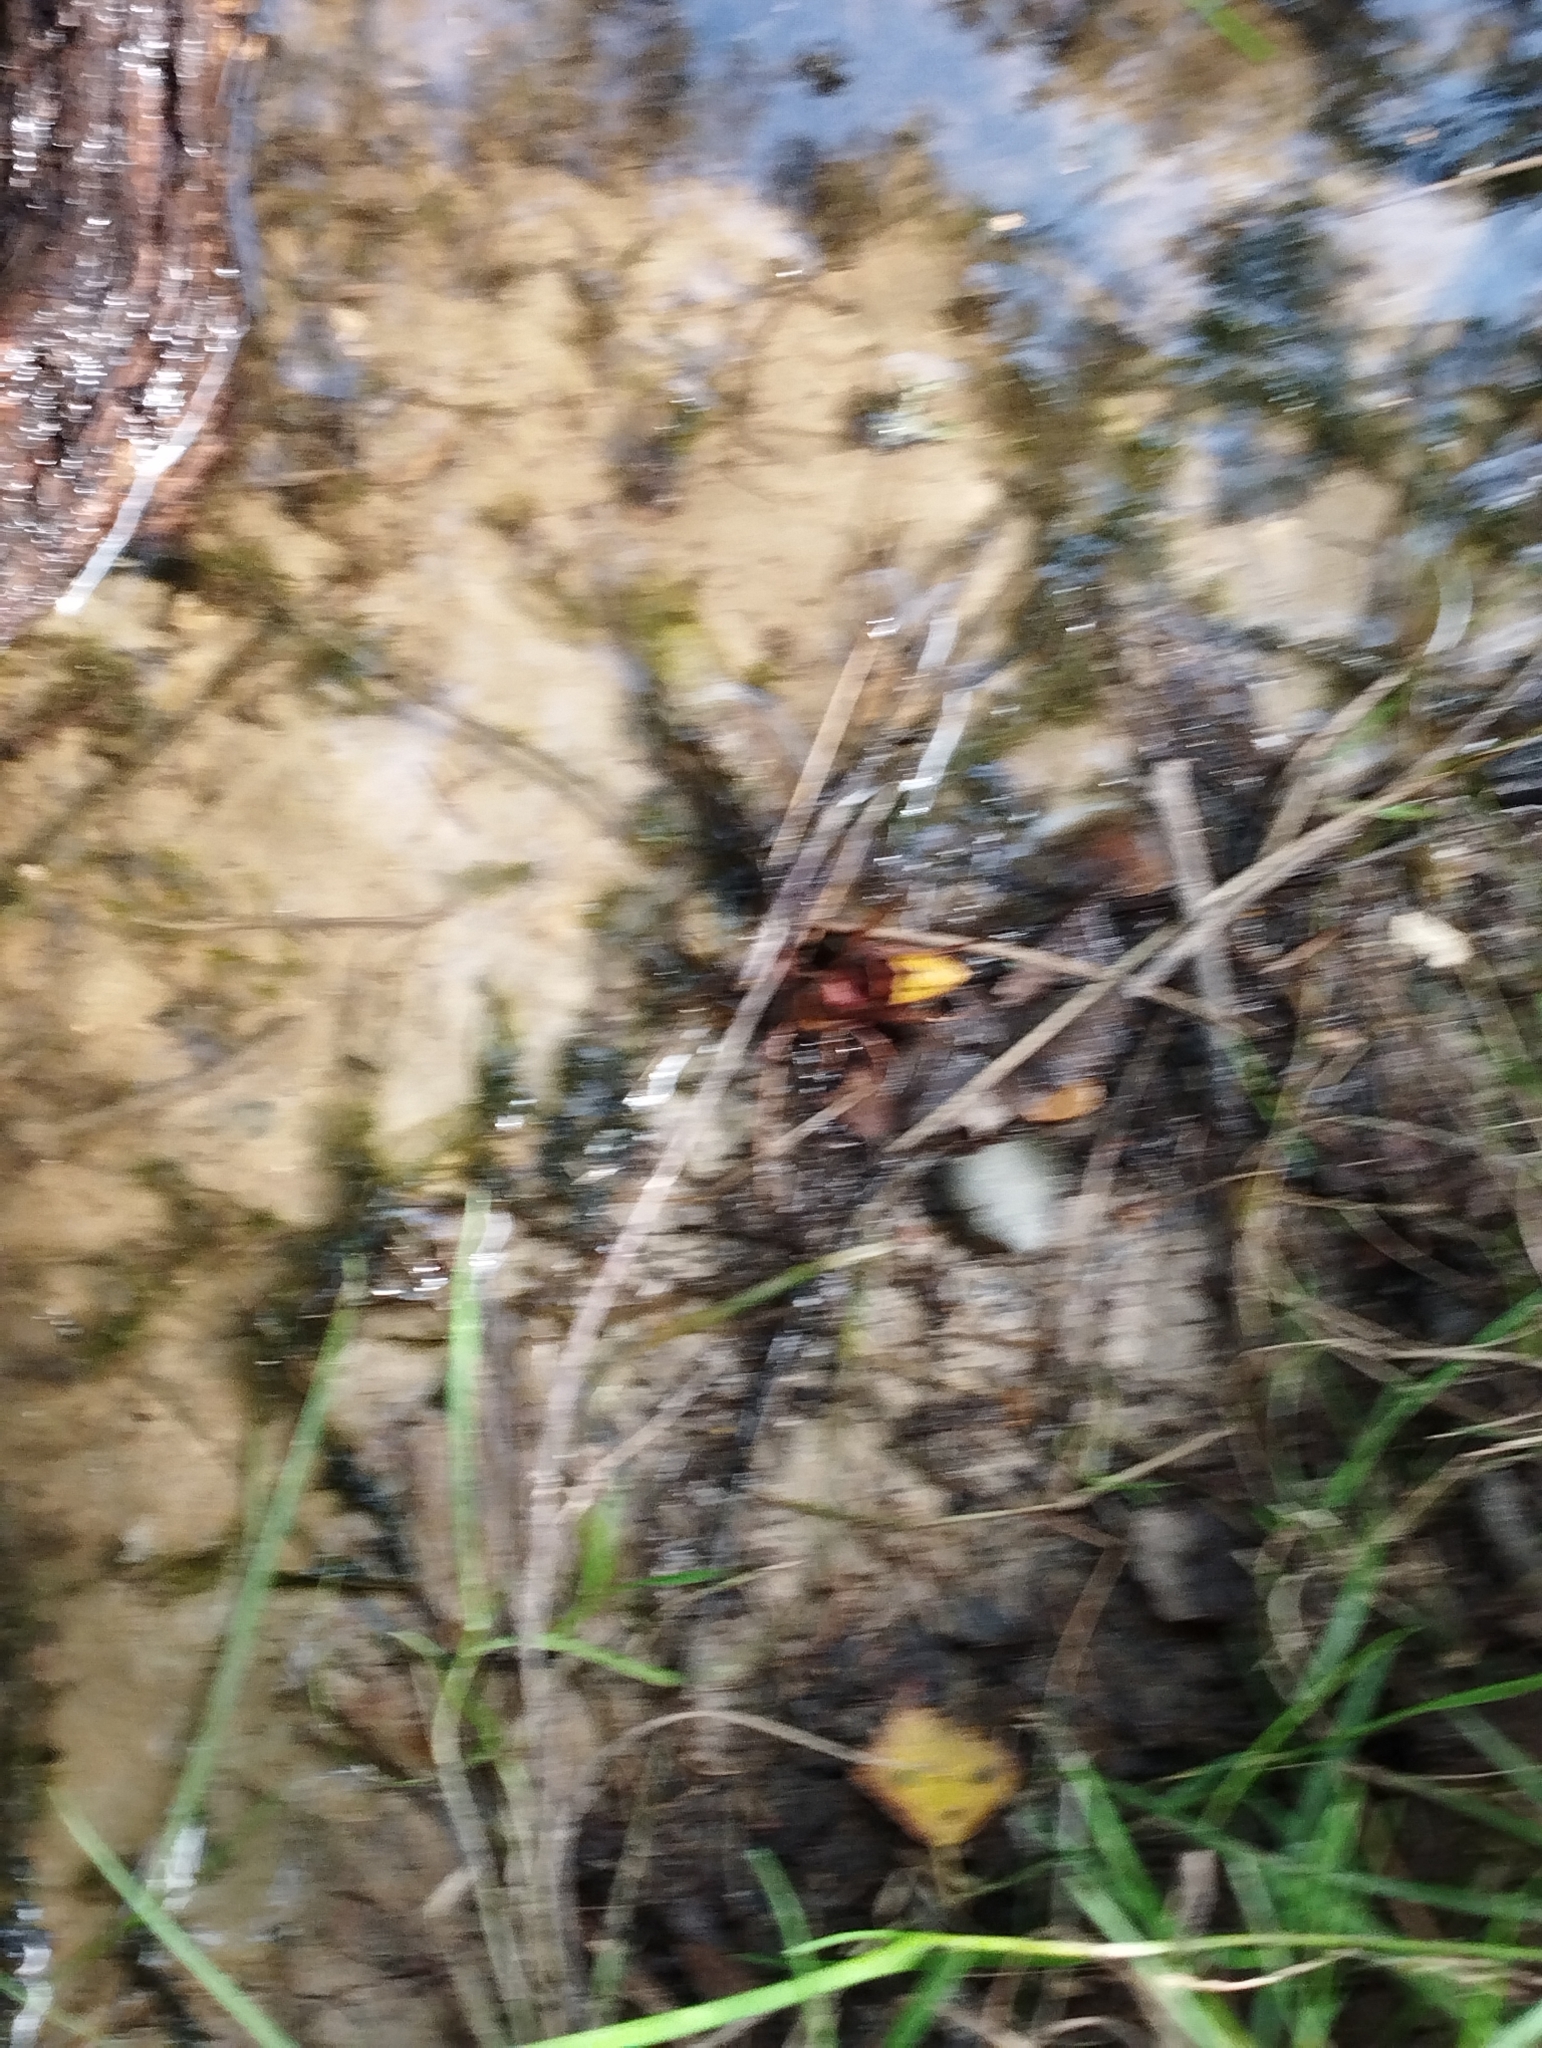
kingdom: Animalia
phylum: Arthropoda
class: Insecta
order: Hymenoptera
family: Vespidae
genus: Vespa
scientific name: Vespa crabro
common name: Hornet
